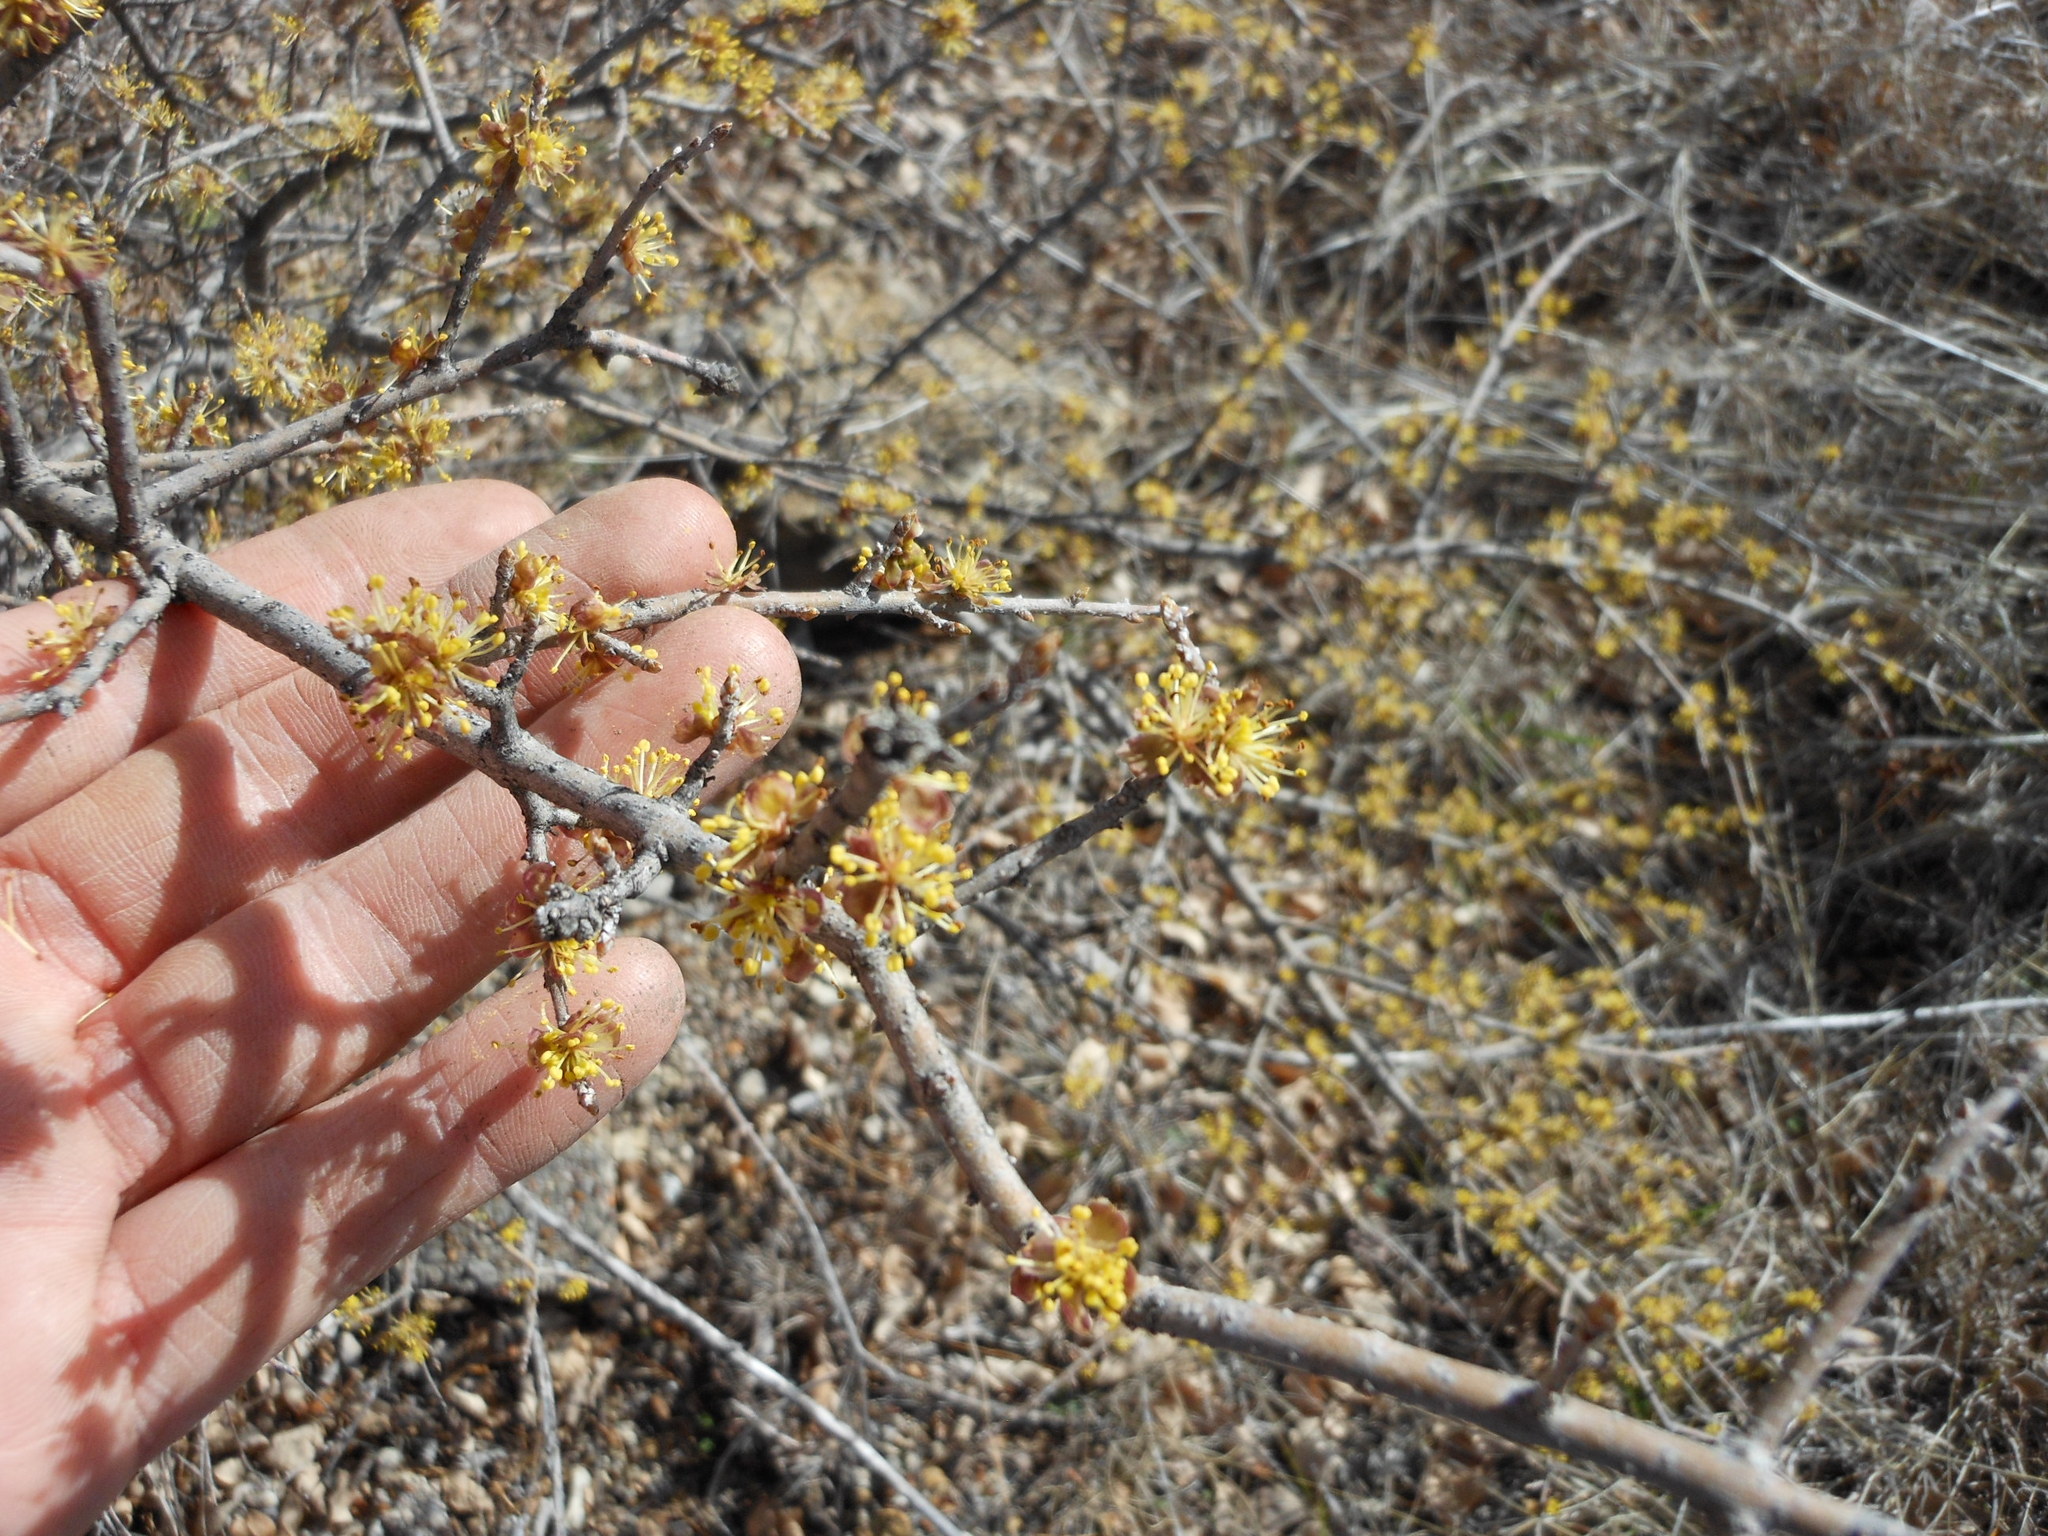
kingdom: Plantae
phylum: Tracheophyta
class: Magnoliopsida
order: Lamiales
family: Oleaceae
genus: Forestiera
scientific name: Forestiera pubescens
